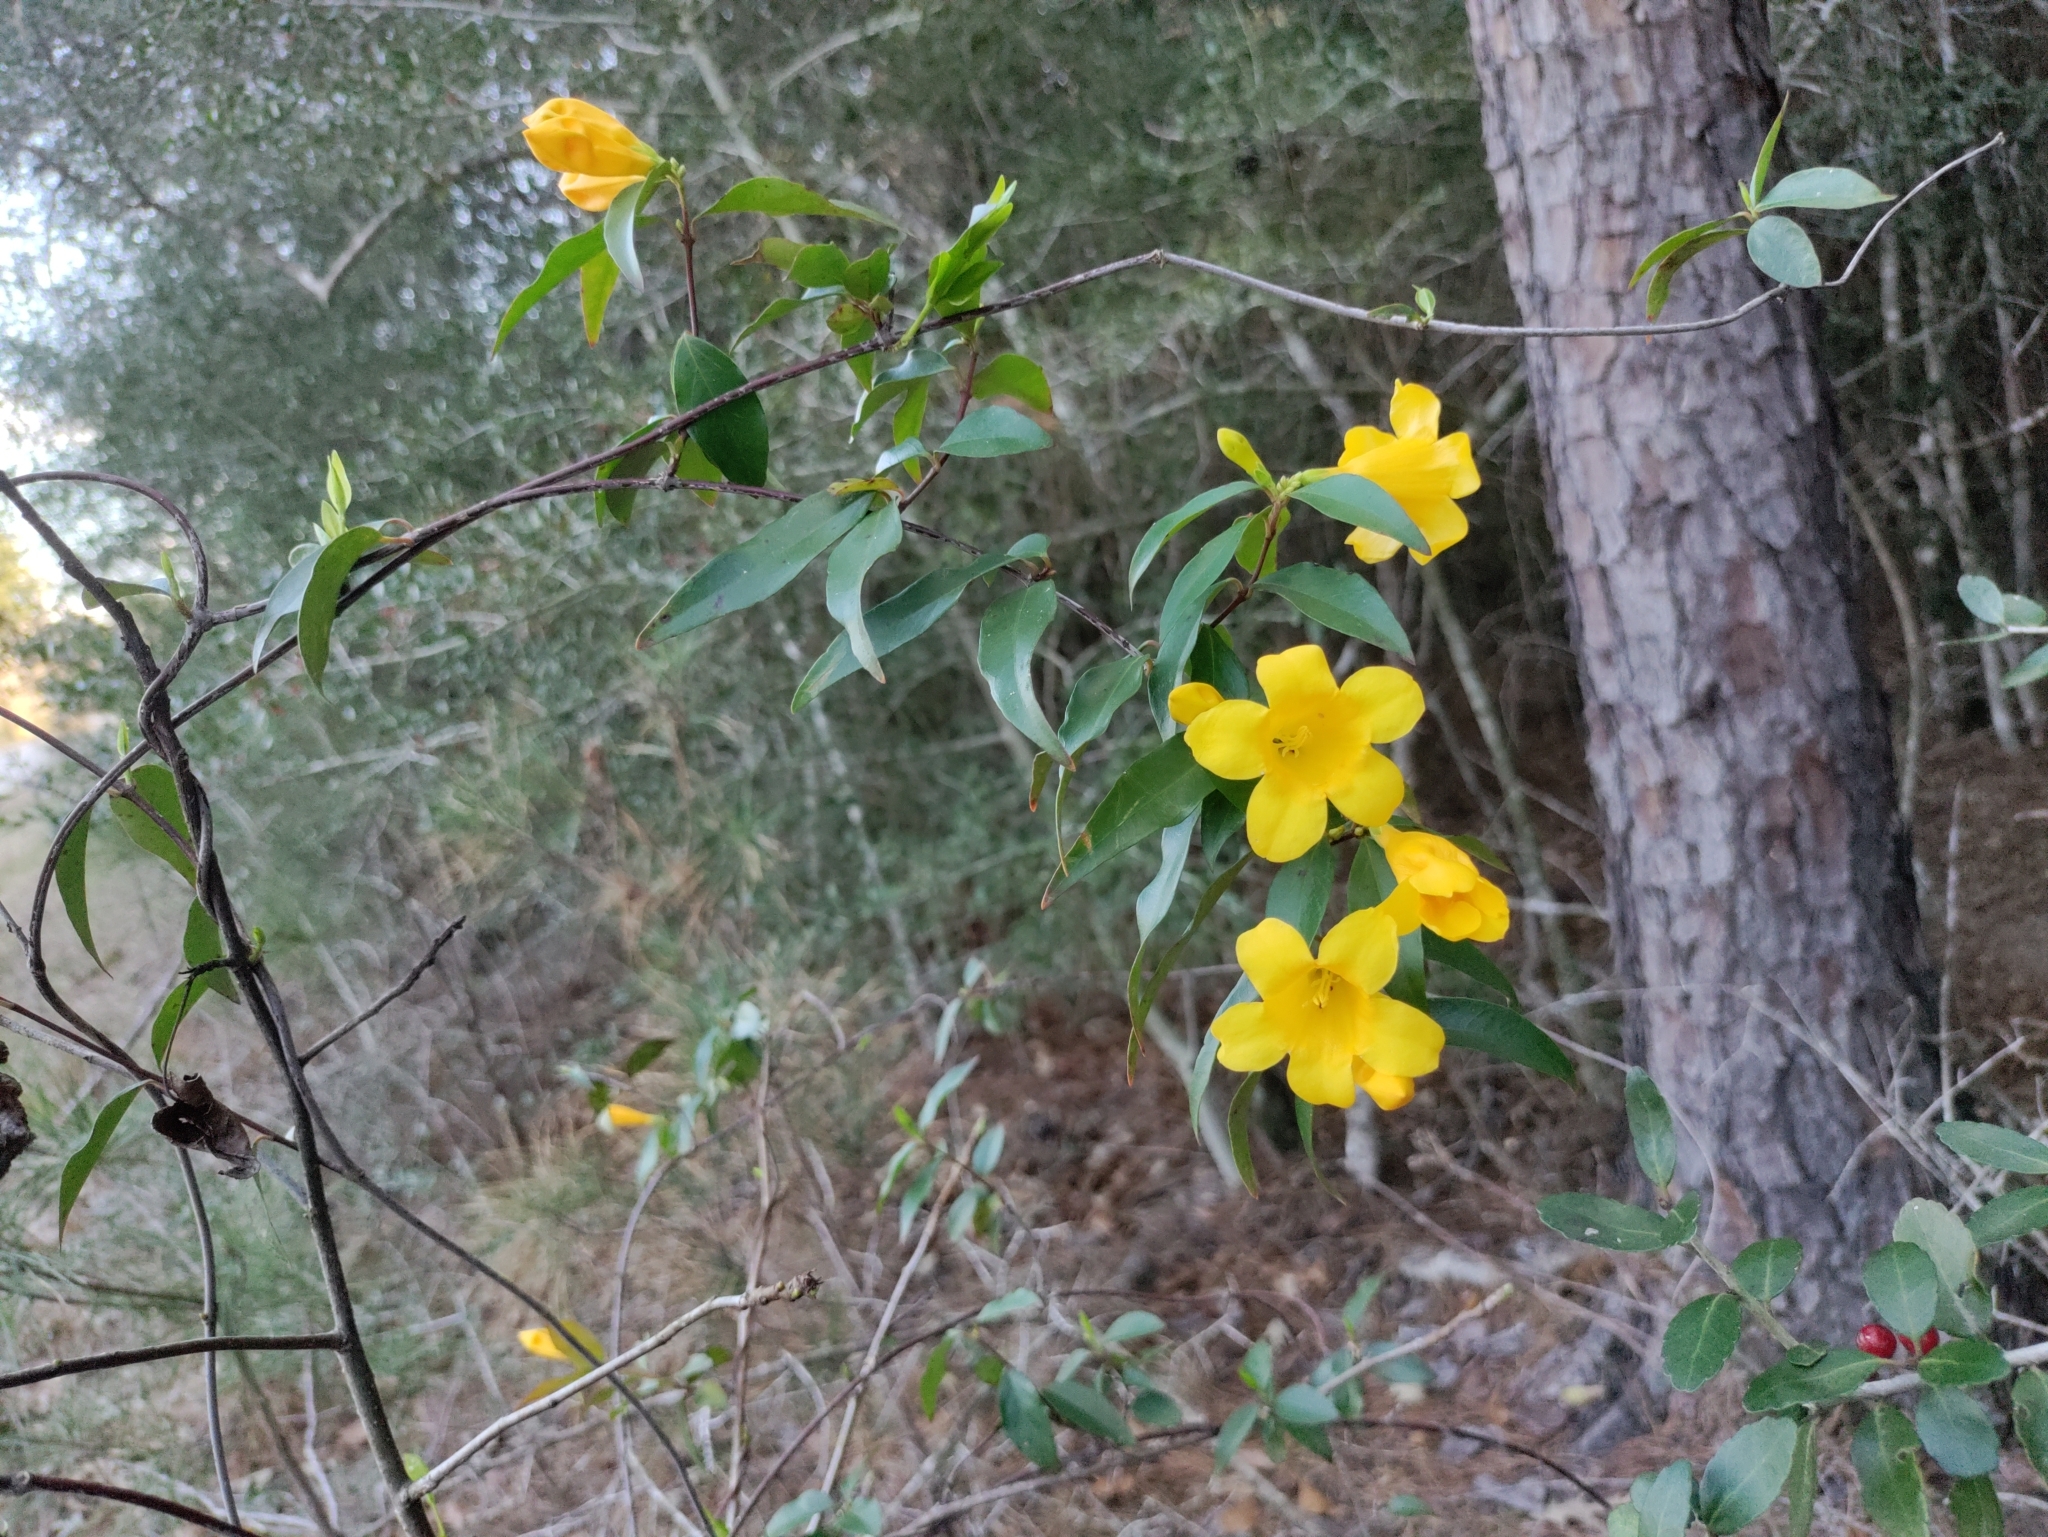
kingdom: Plantae
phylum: Tracheophyta
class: Magnoliopsida
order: Gentianales
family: Gelsemiaceae
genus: Gelsemium
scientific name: Gelsemium sempervirens
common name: Carolina-jasmine
